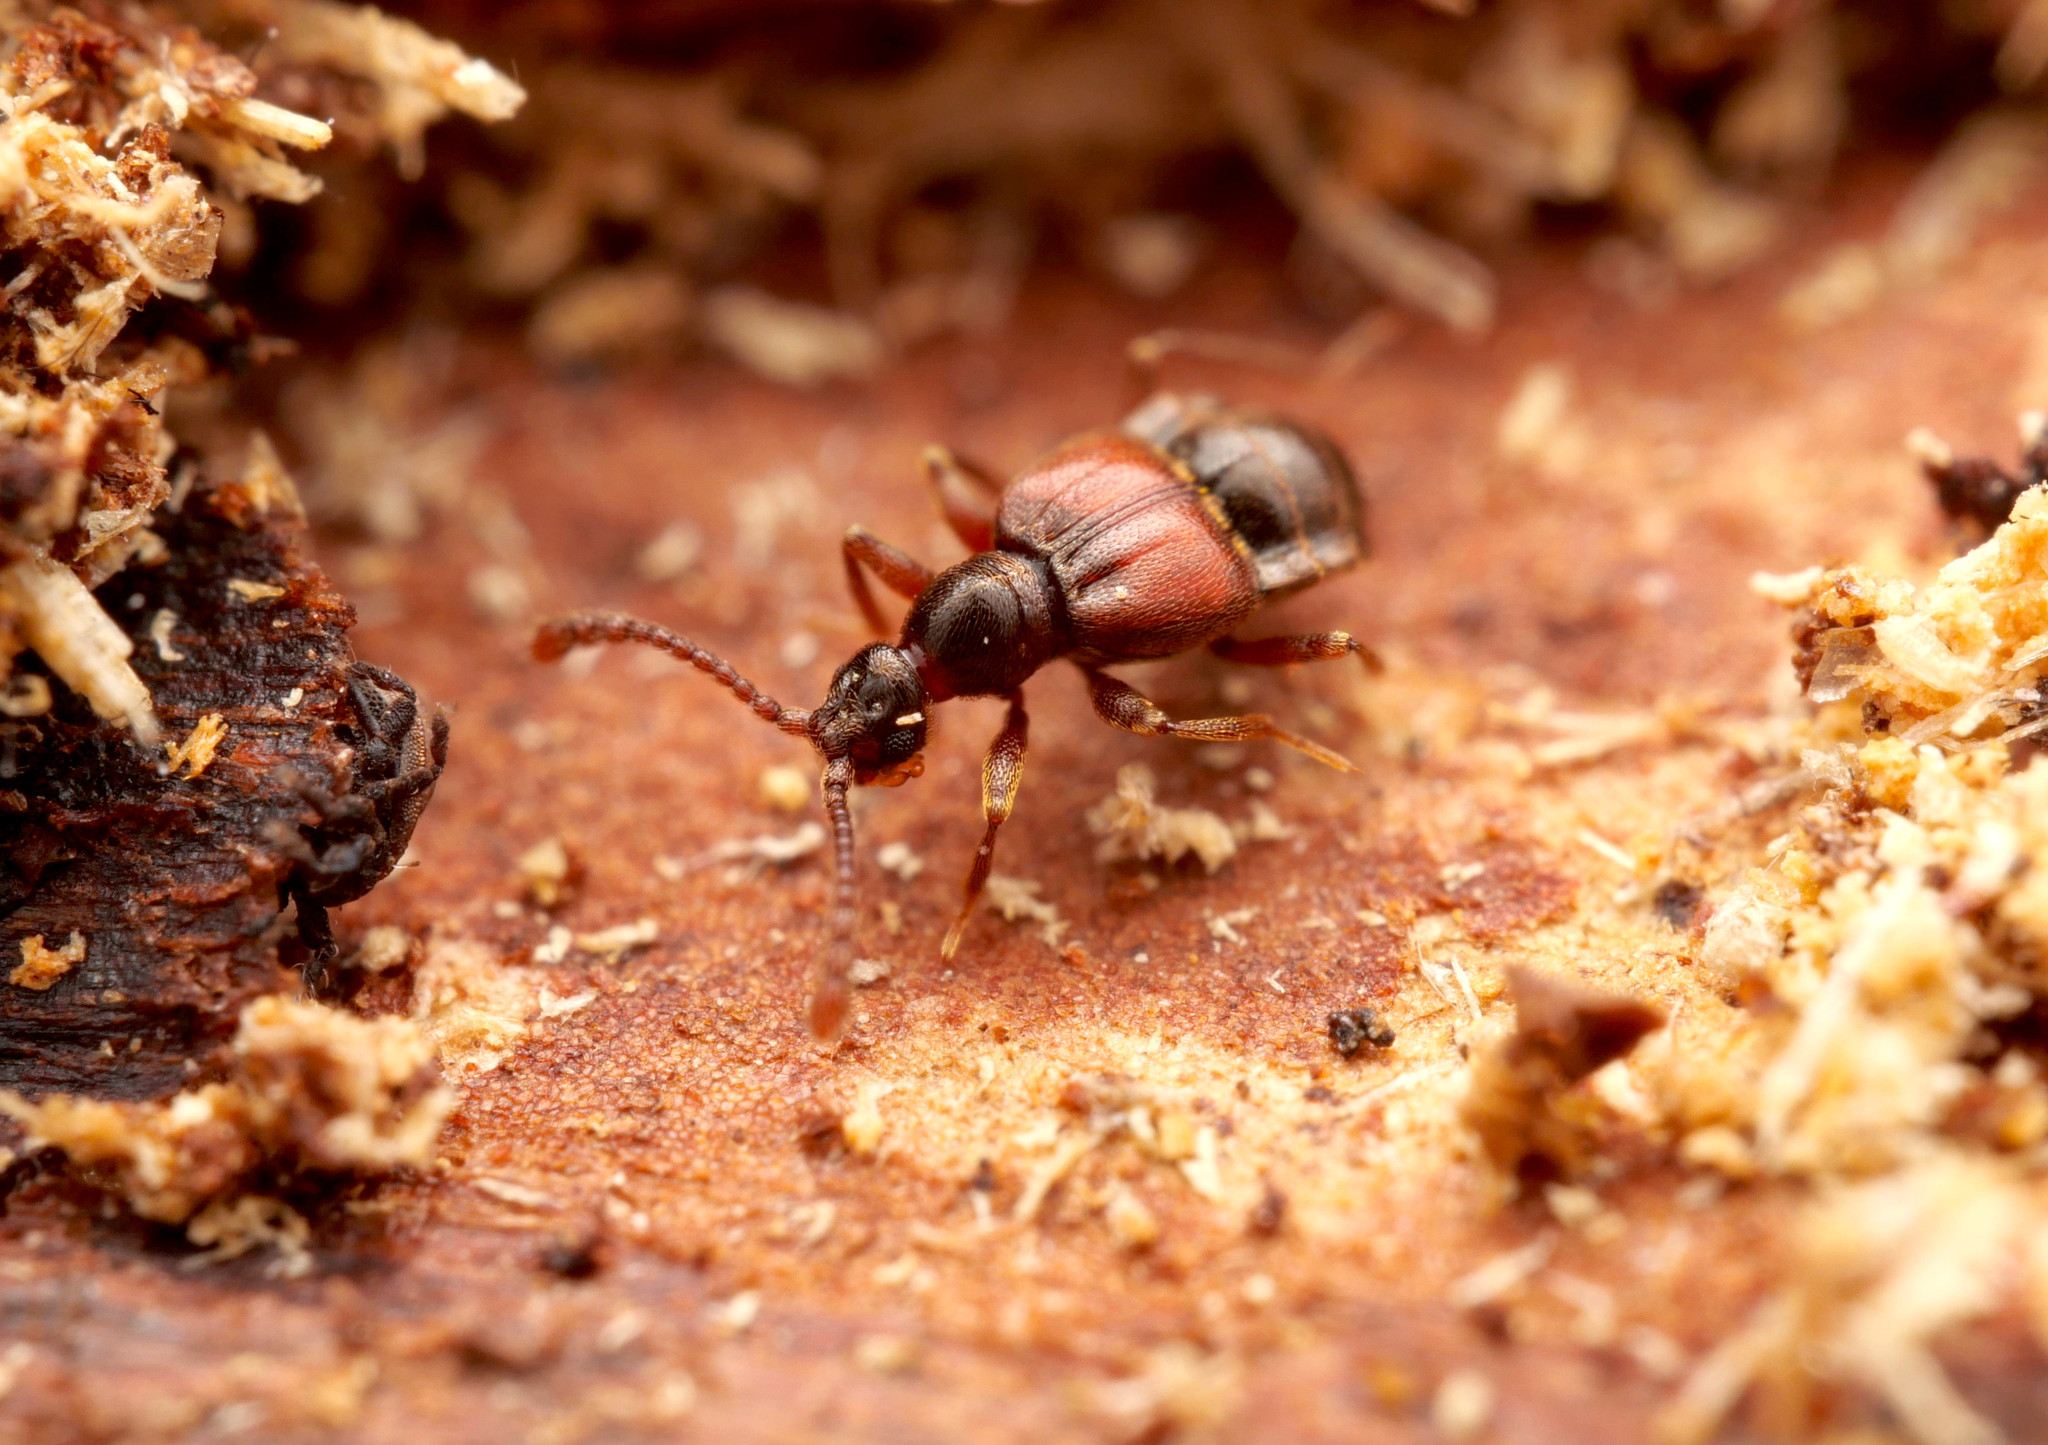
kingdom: Animalia
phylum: Arthropoda
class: Insecta
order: Coleoptera
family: Staphylinidae
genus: Tyrus
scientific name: Tyrus mucronatus
